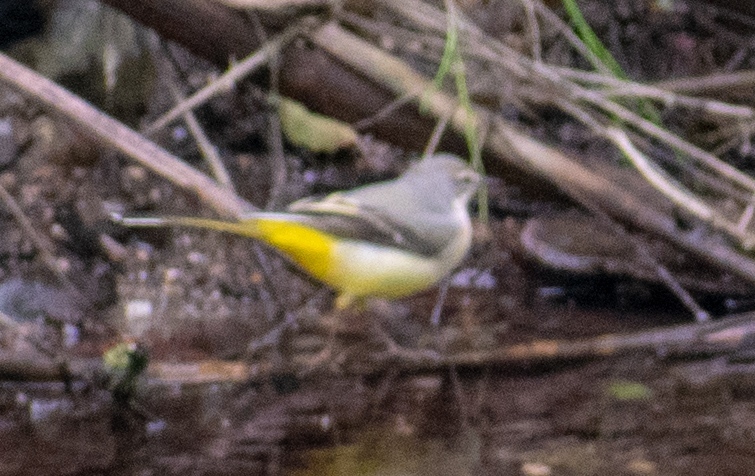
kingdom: Animalia
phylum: Chordata
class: Aves
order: Passeriformes
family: Motacillidae
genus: Motacilla
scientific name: Motacilla cinerea
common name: Grey wagtail
